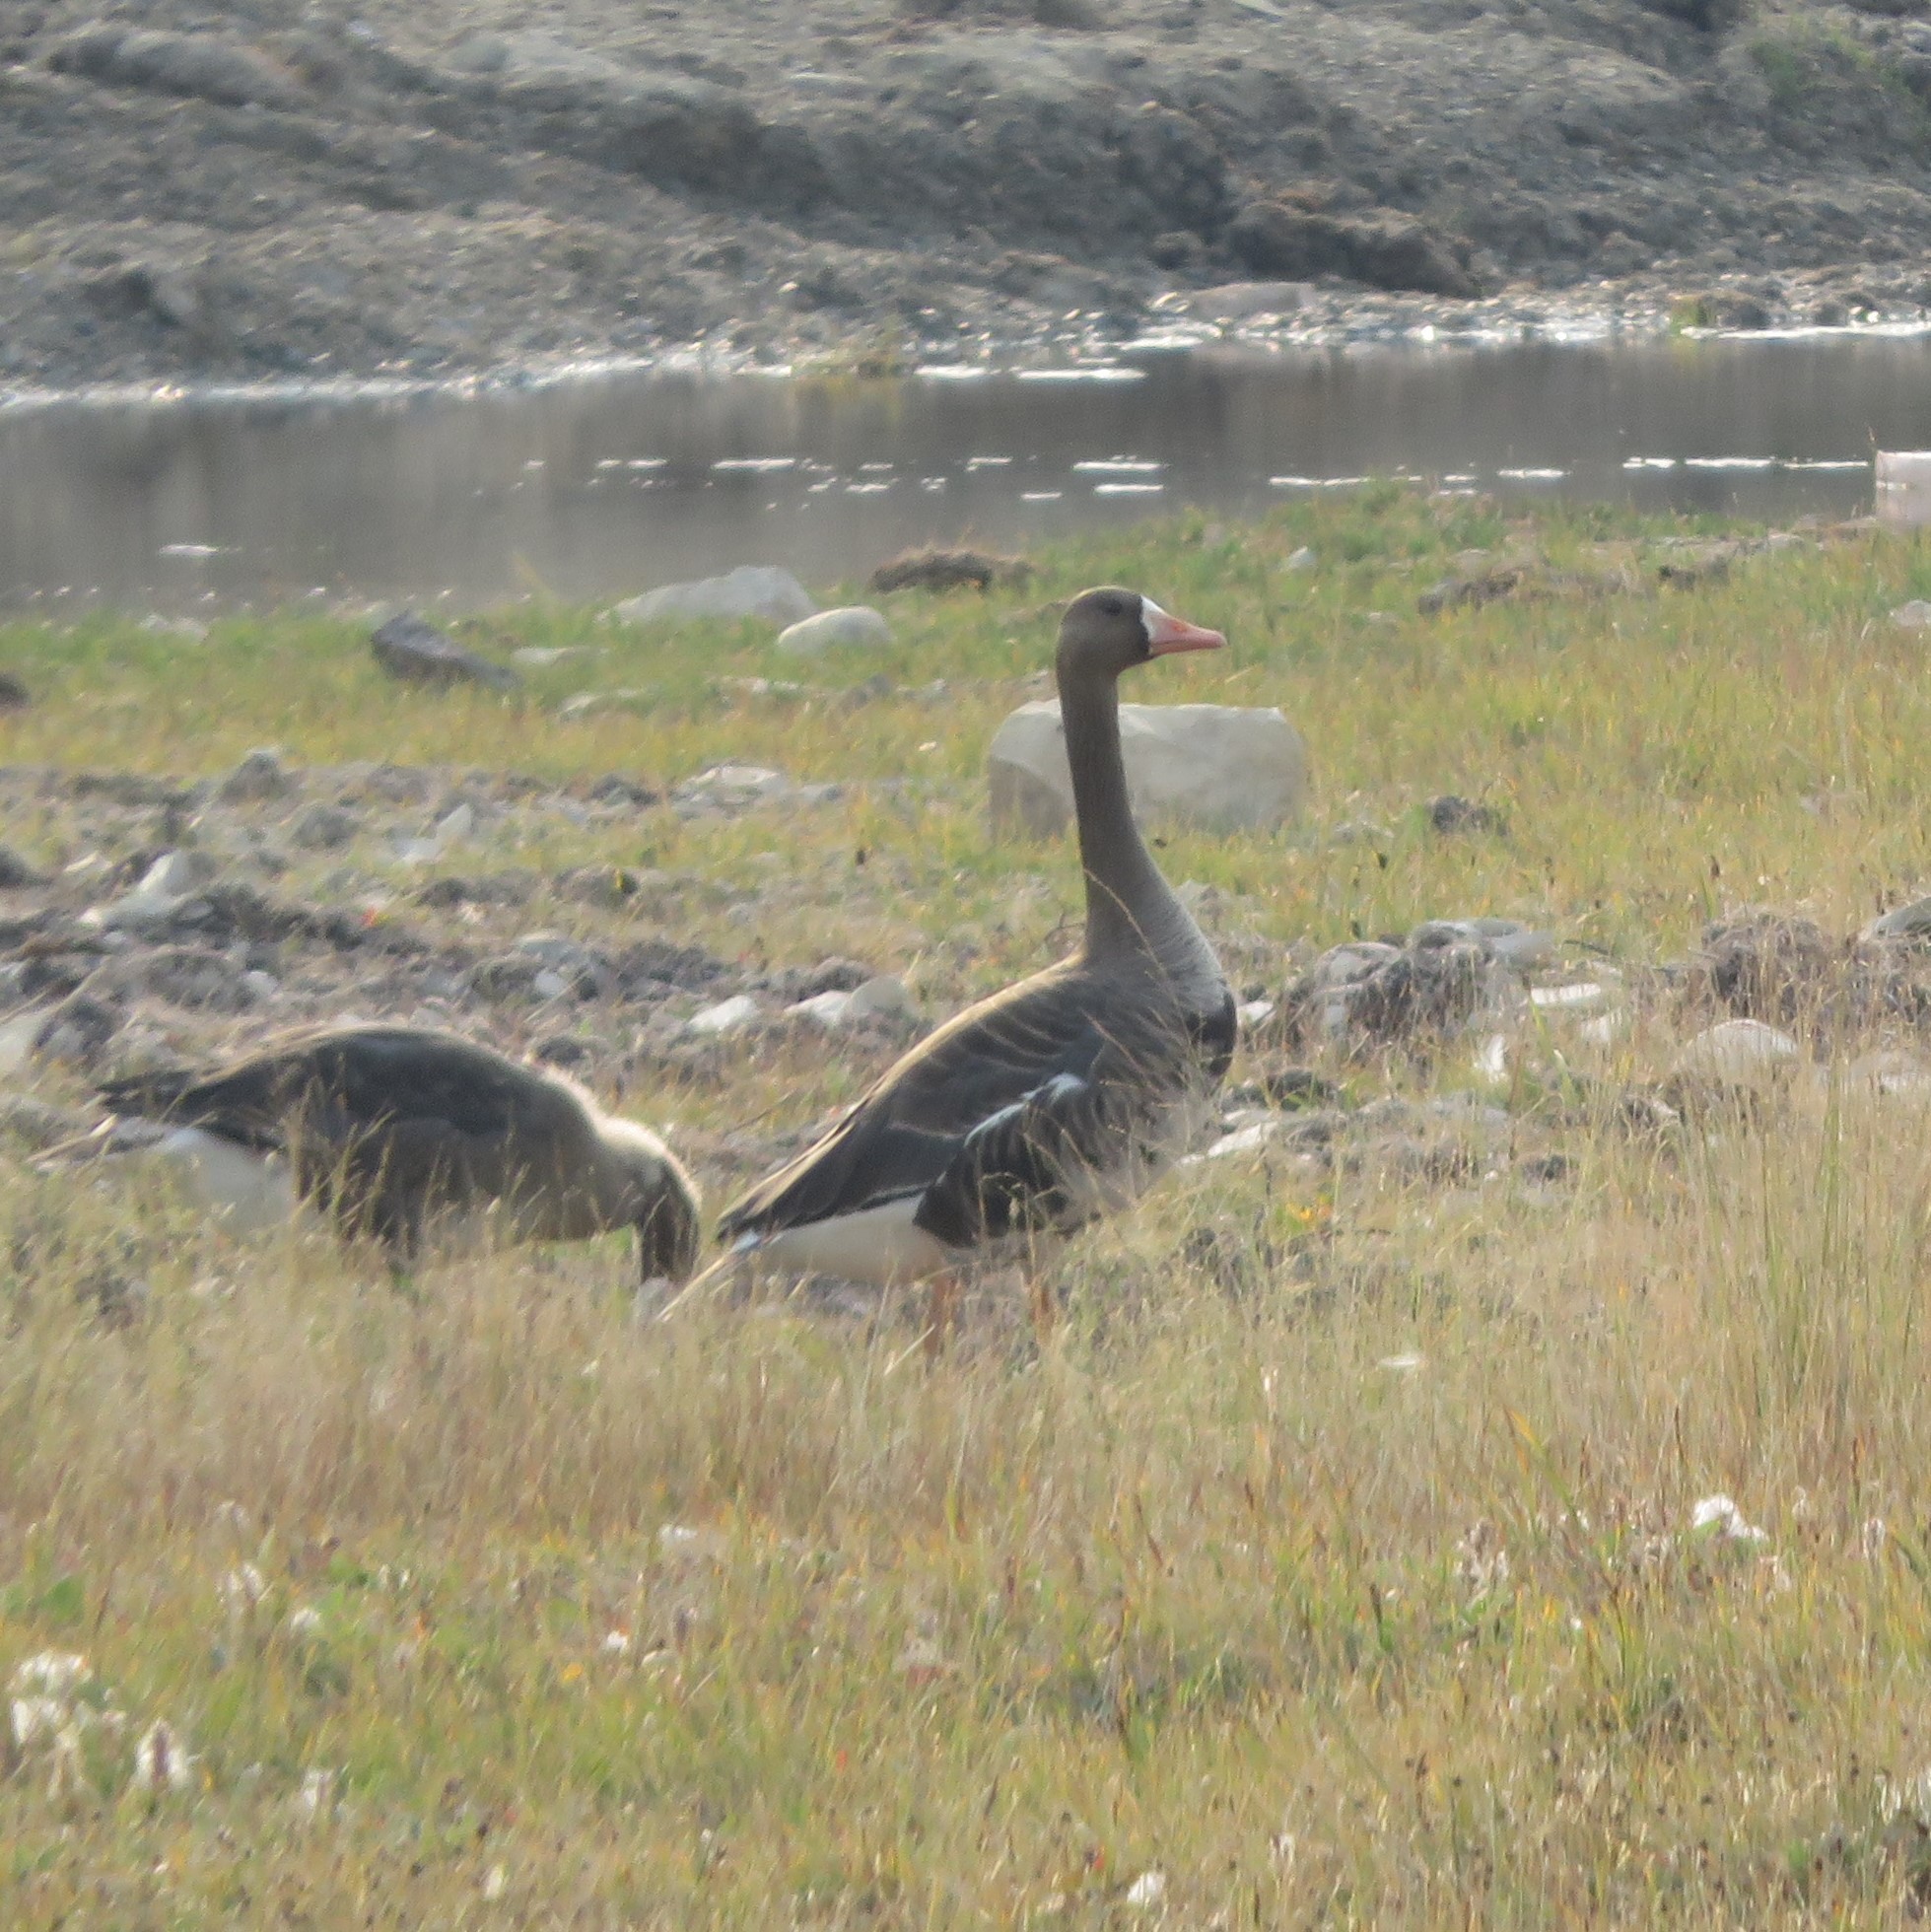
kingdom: Animalia
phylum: Chordata
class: Aves
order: Anseriformes
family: Anatidae
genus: Anser
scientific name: Anser albifrons
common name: Greater white-fronted goose
